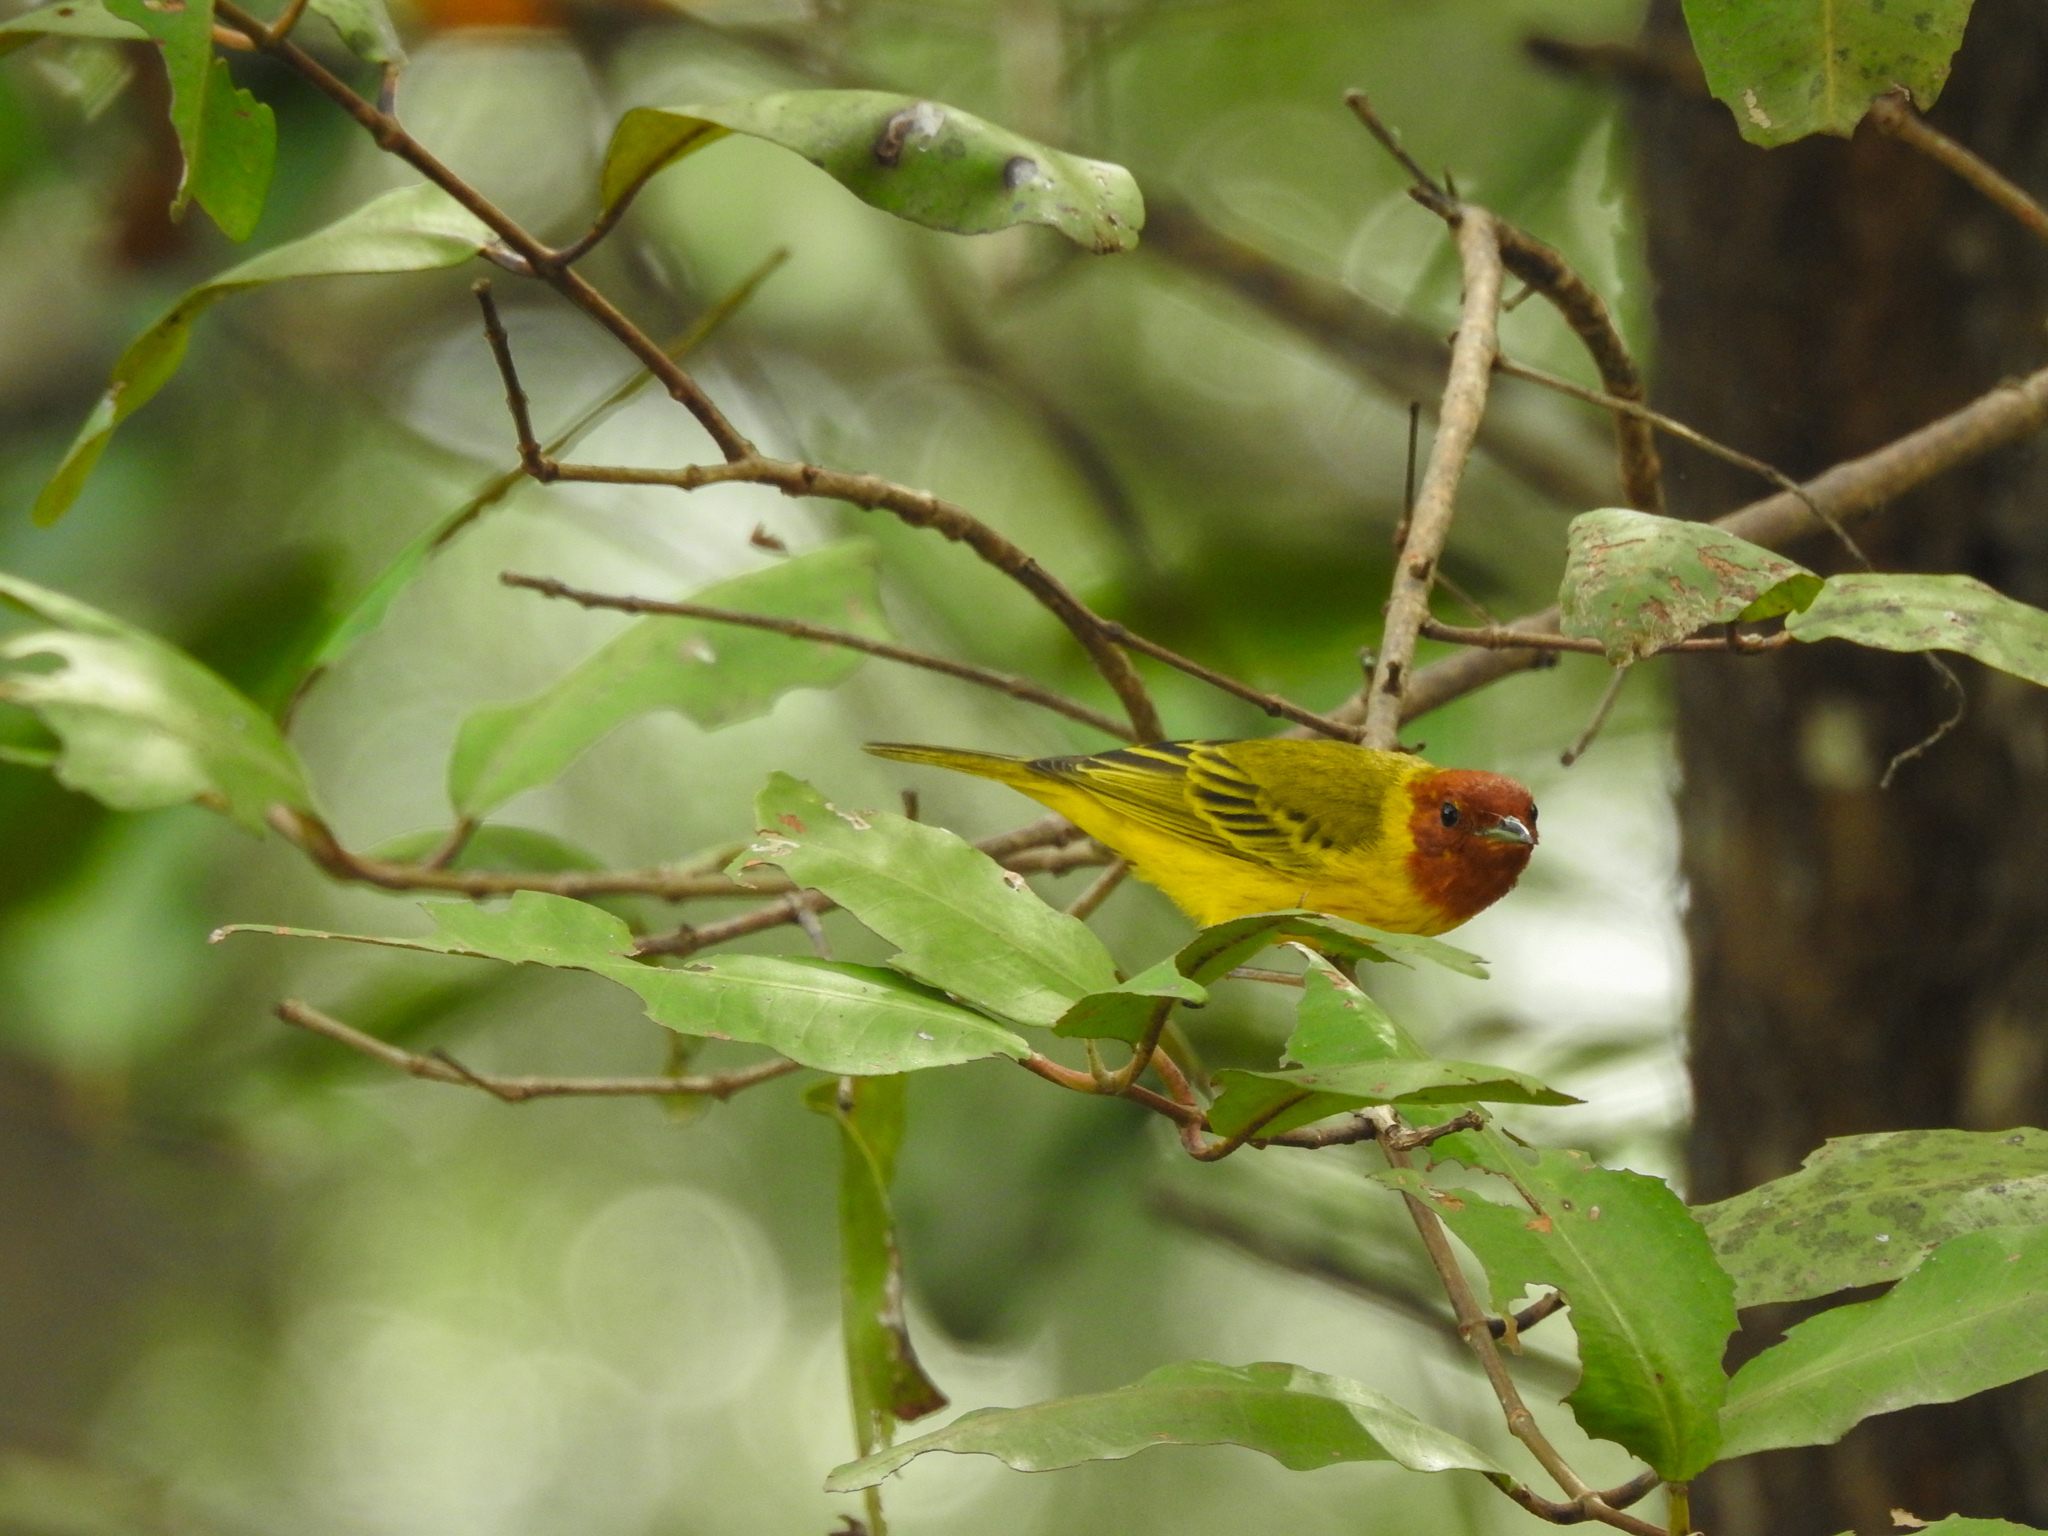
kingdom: Animalia
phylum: Chordata
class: Aves
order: Passeriformes
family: Parulidae
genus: Setophaga
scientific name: Setophaga petechia
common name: Yellow warbler
